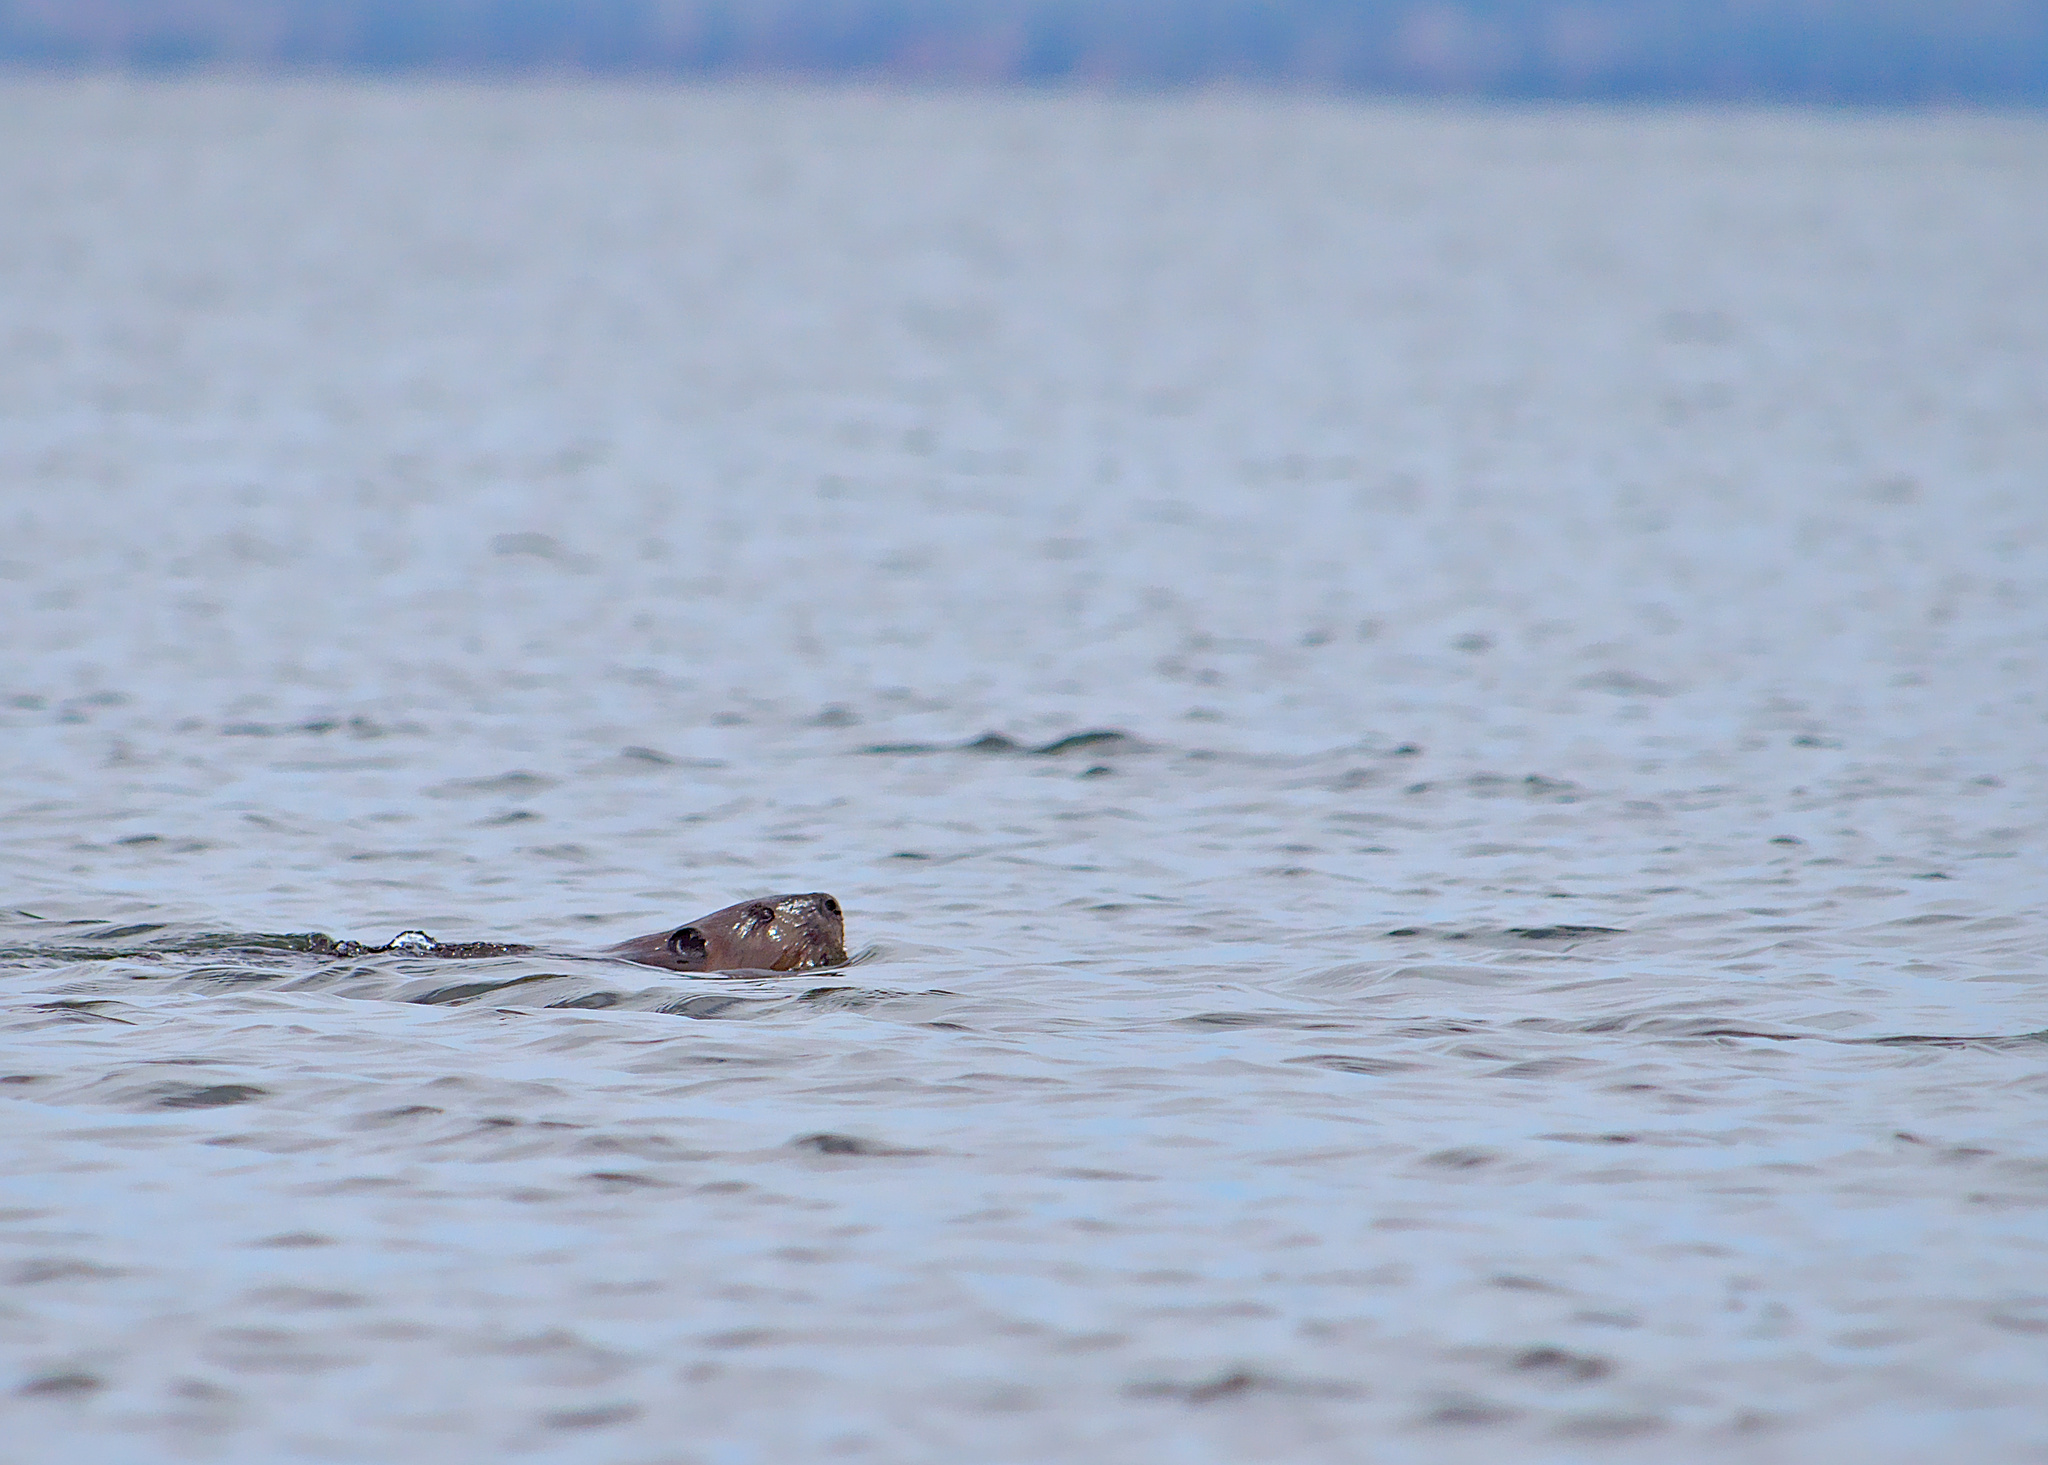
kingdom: Animalia
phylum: Chordata
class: Mammalia
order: Rodentia
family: Castoridae
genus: Castor
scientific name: Castor canadensis
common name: American beaver
